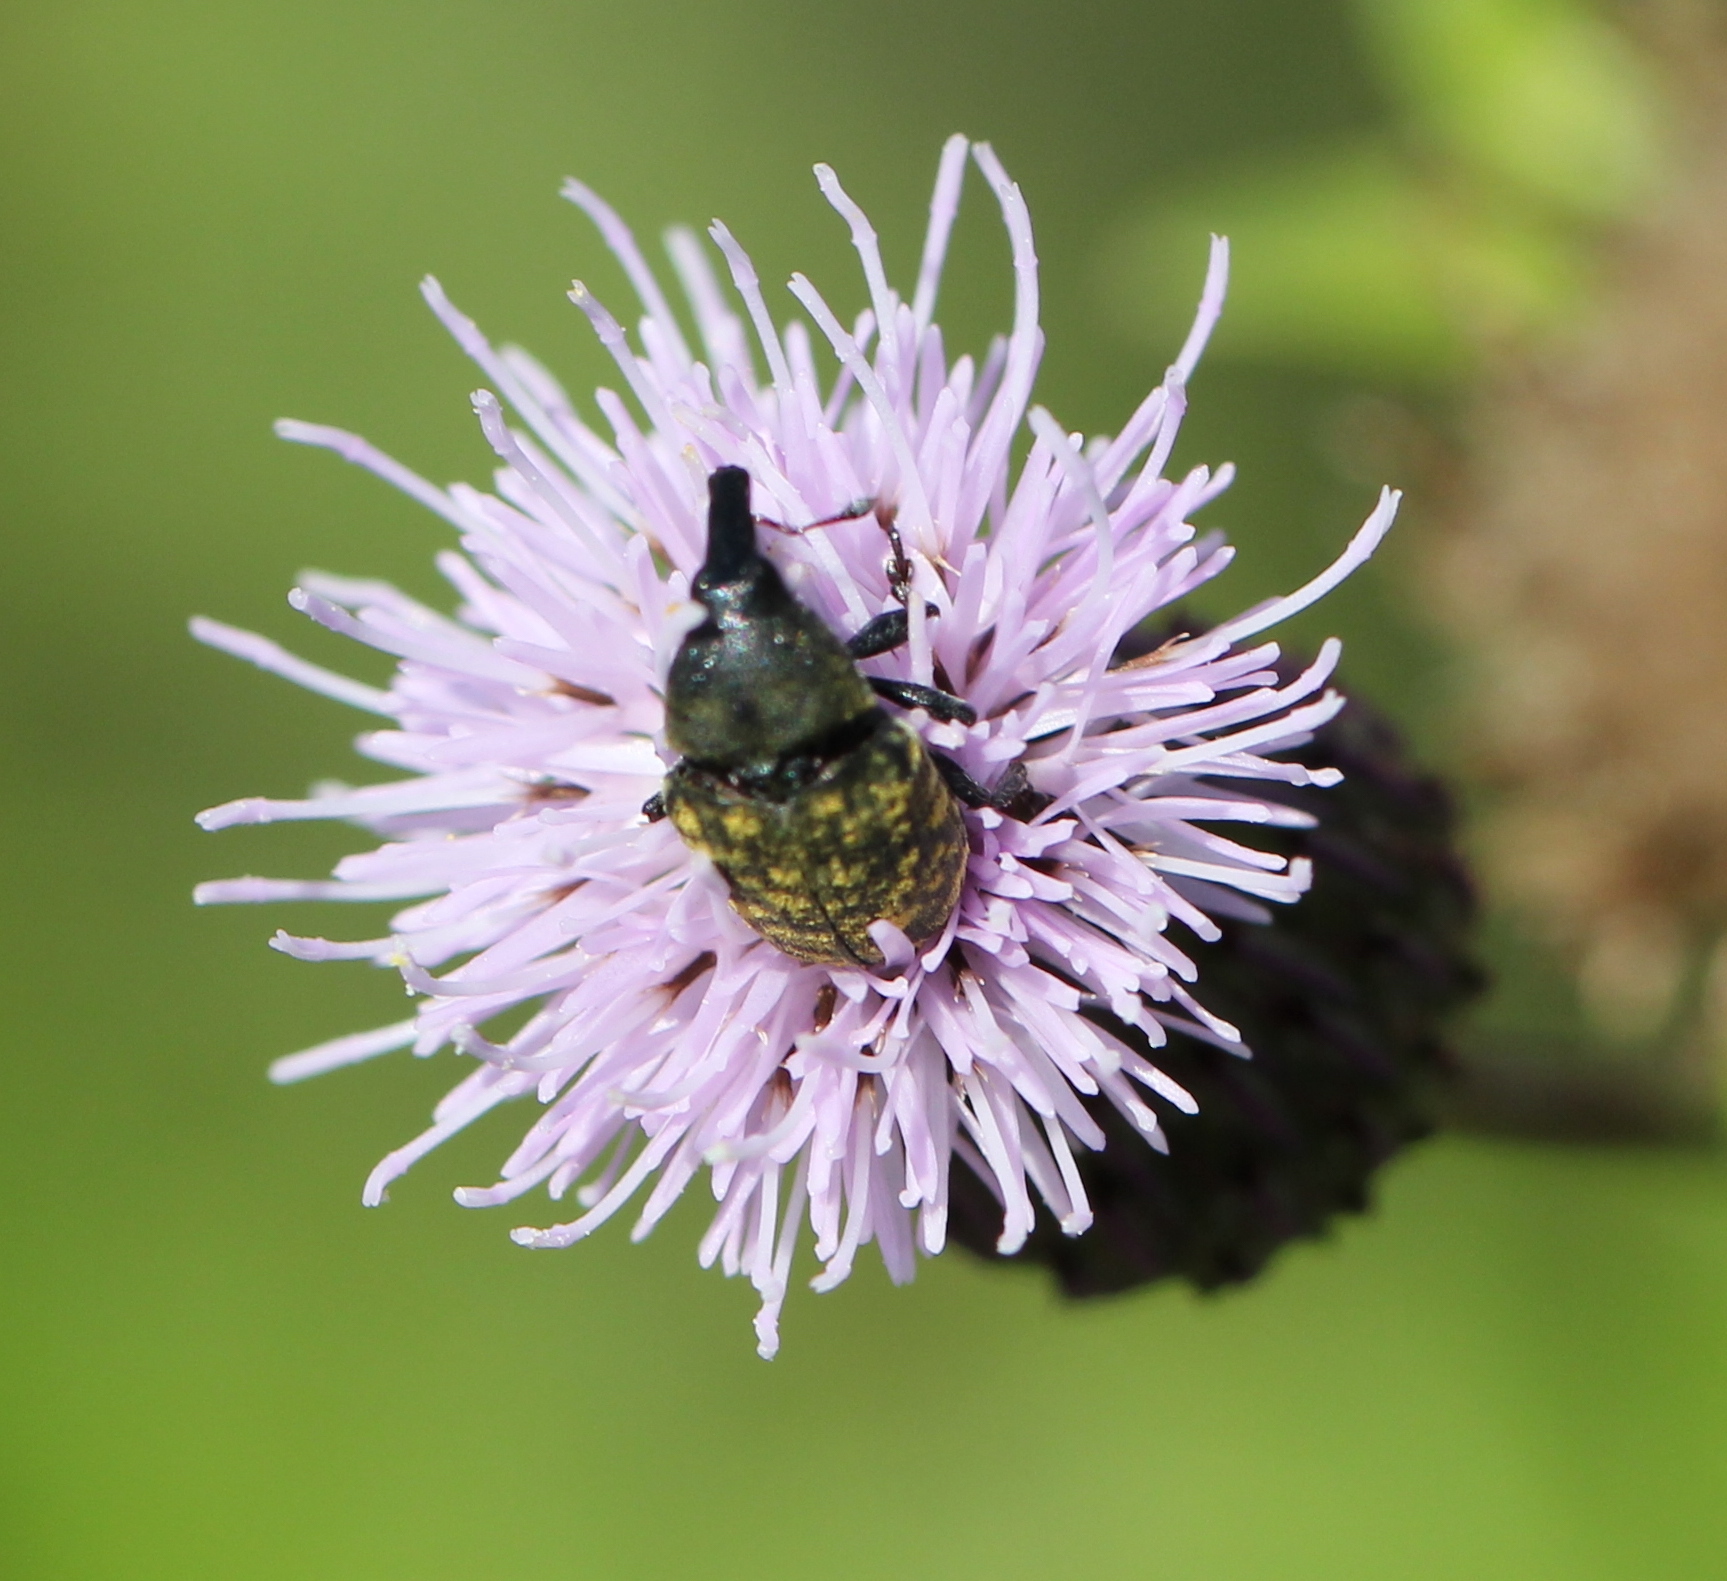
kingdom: Animalia
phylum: Arthropoda
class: Insecta
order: Coleoptera
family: Curculionidae
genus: Larinus
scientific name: Larinus turbinatus
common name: Weevil
